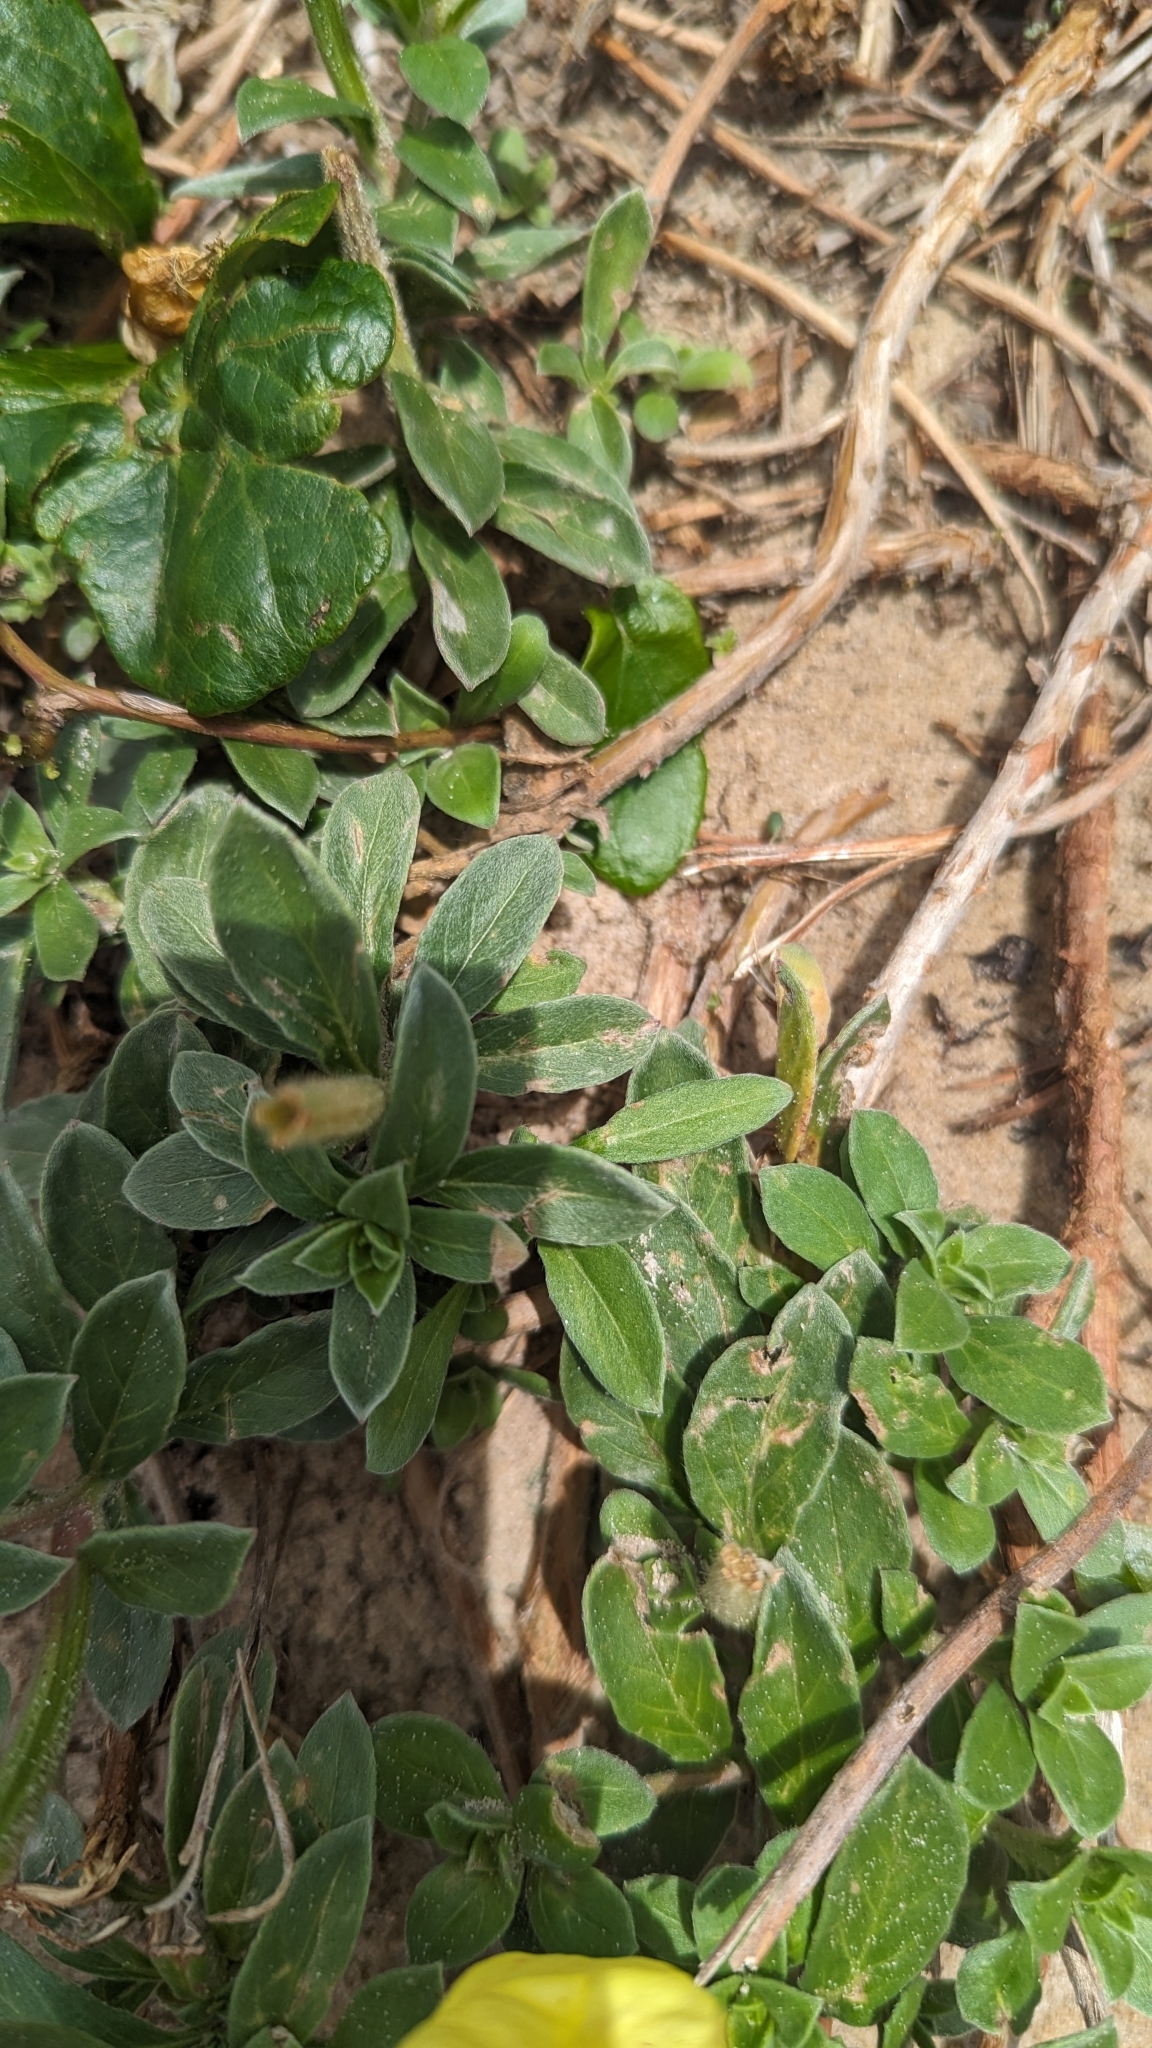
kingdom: Plantae
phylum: Tracheophyta
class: Magnoliopsida
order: Myrtales
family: Onagraceae
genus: Oenothera
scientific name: Oenothera drummondii
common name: Beach evening-primrose
